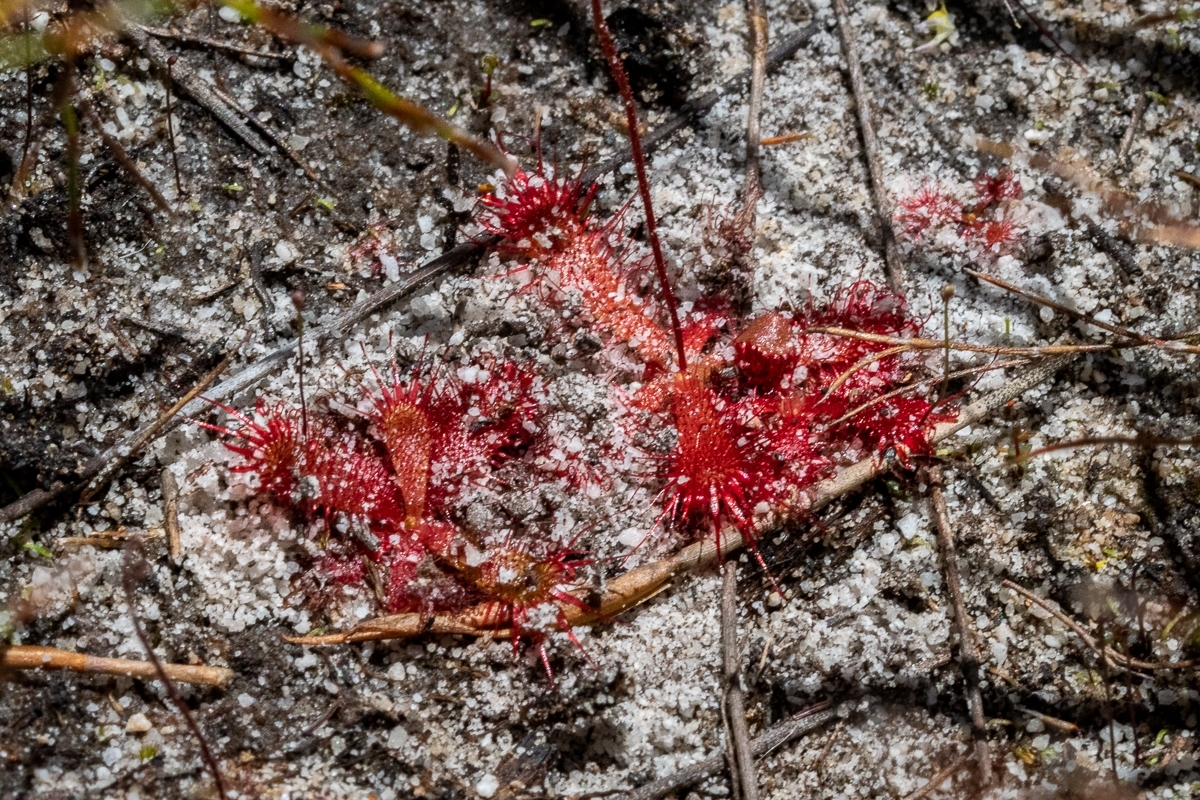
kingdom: Plantae
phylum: Tracheophyta
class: Magnoliopsida
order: Caryophyllales
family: Droseraceae
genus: Drosera
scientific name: Drosera trinervia
